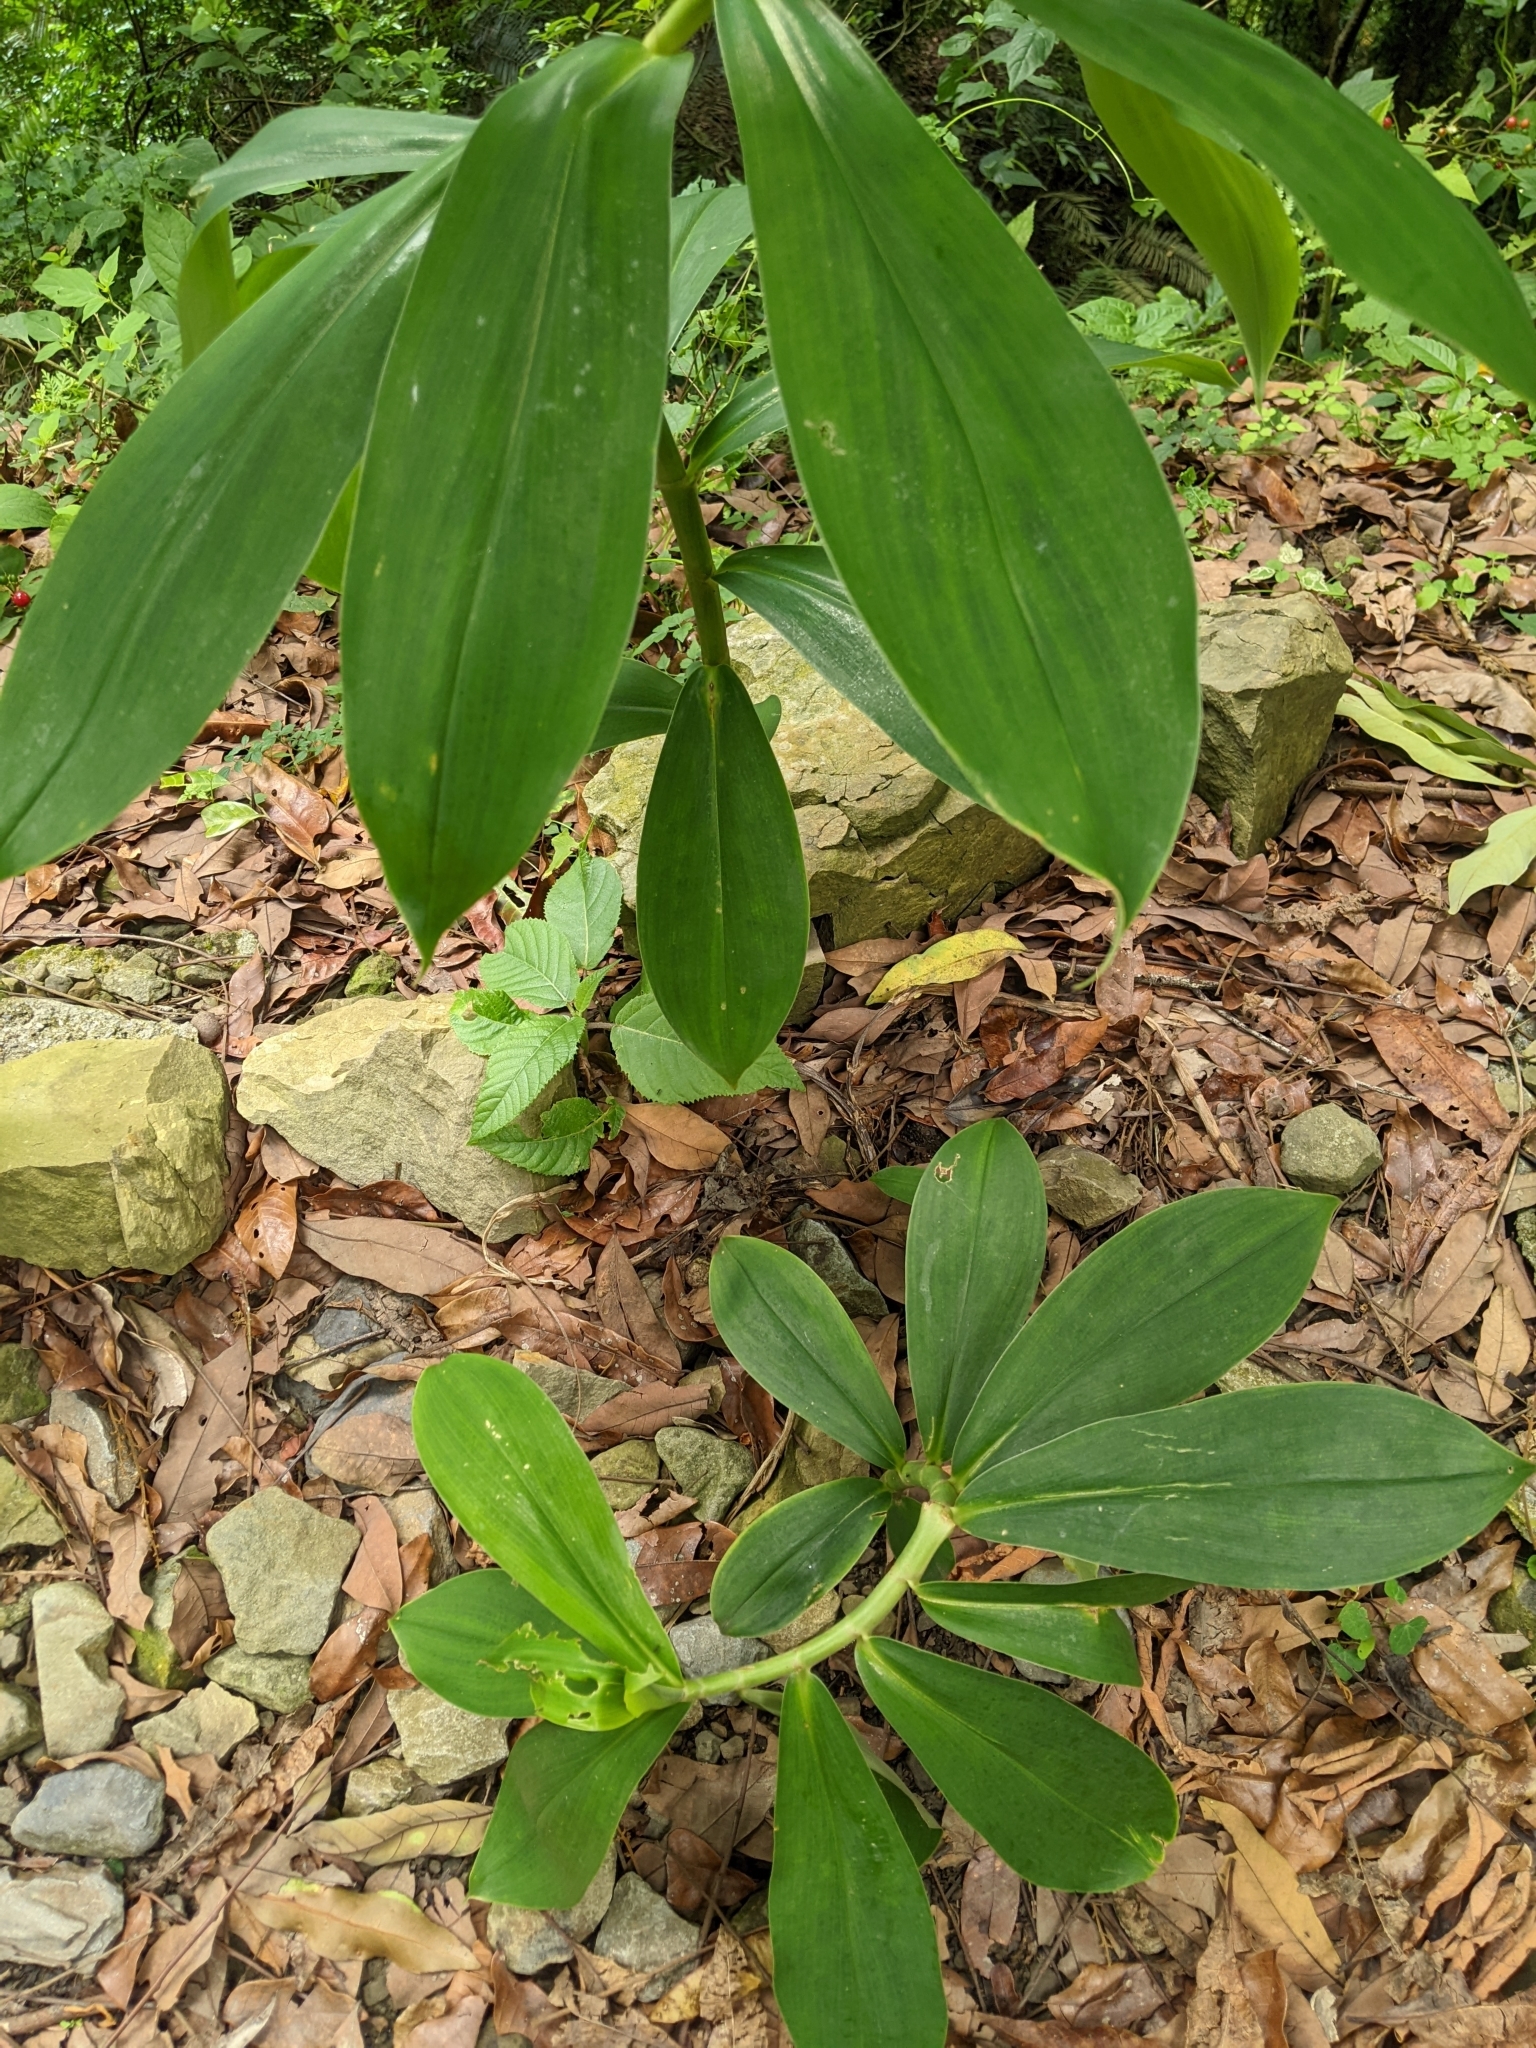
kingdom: Plantae
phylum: Tracheophyta
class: Liliopsida
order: Zingiberales
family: Costaceae
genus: Hellenia
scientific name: Hellenia speciosa
